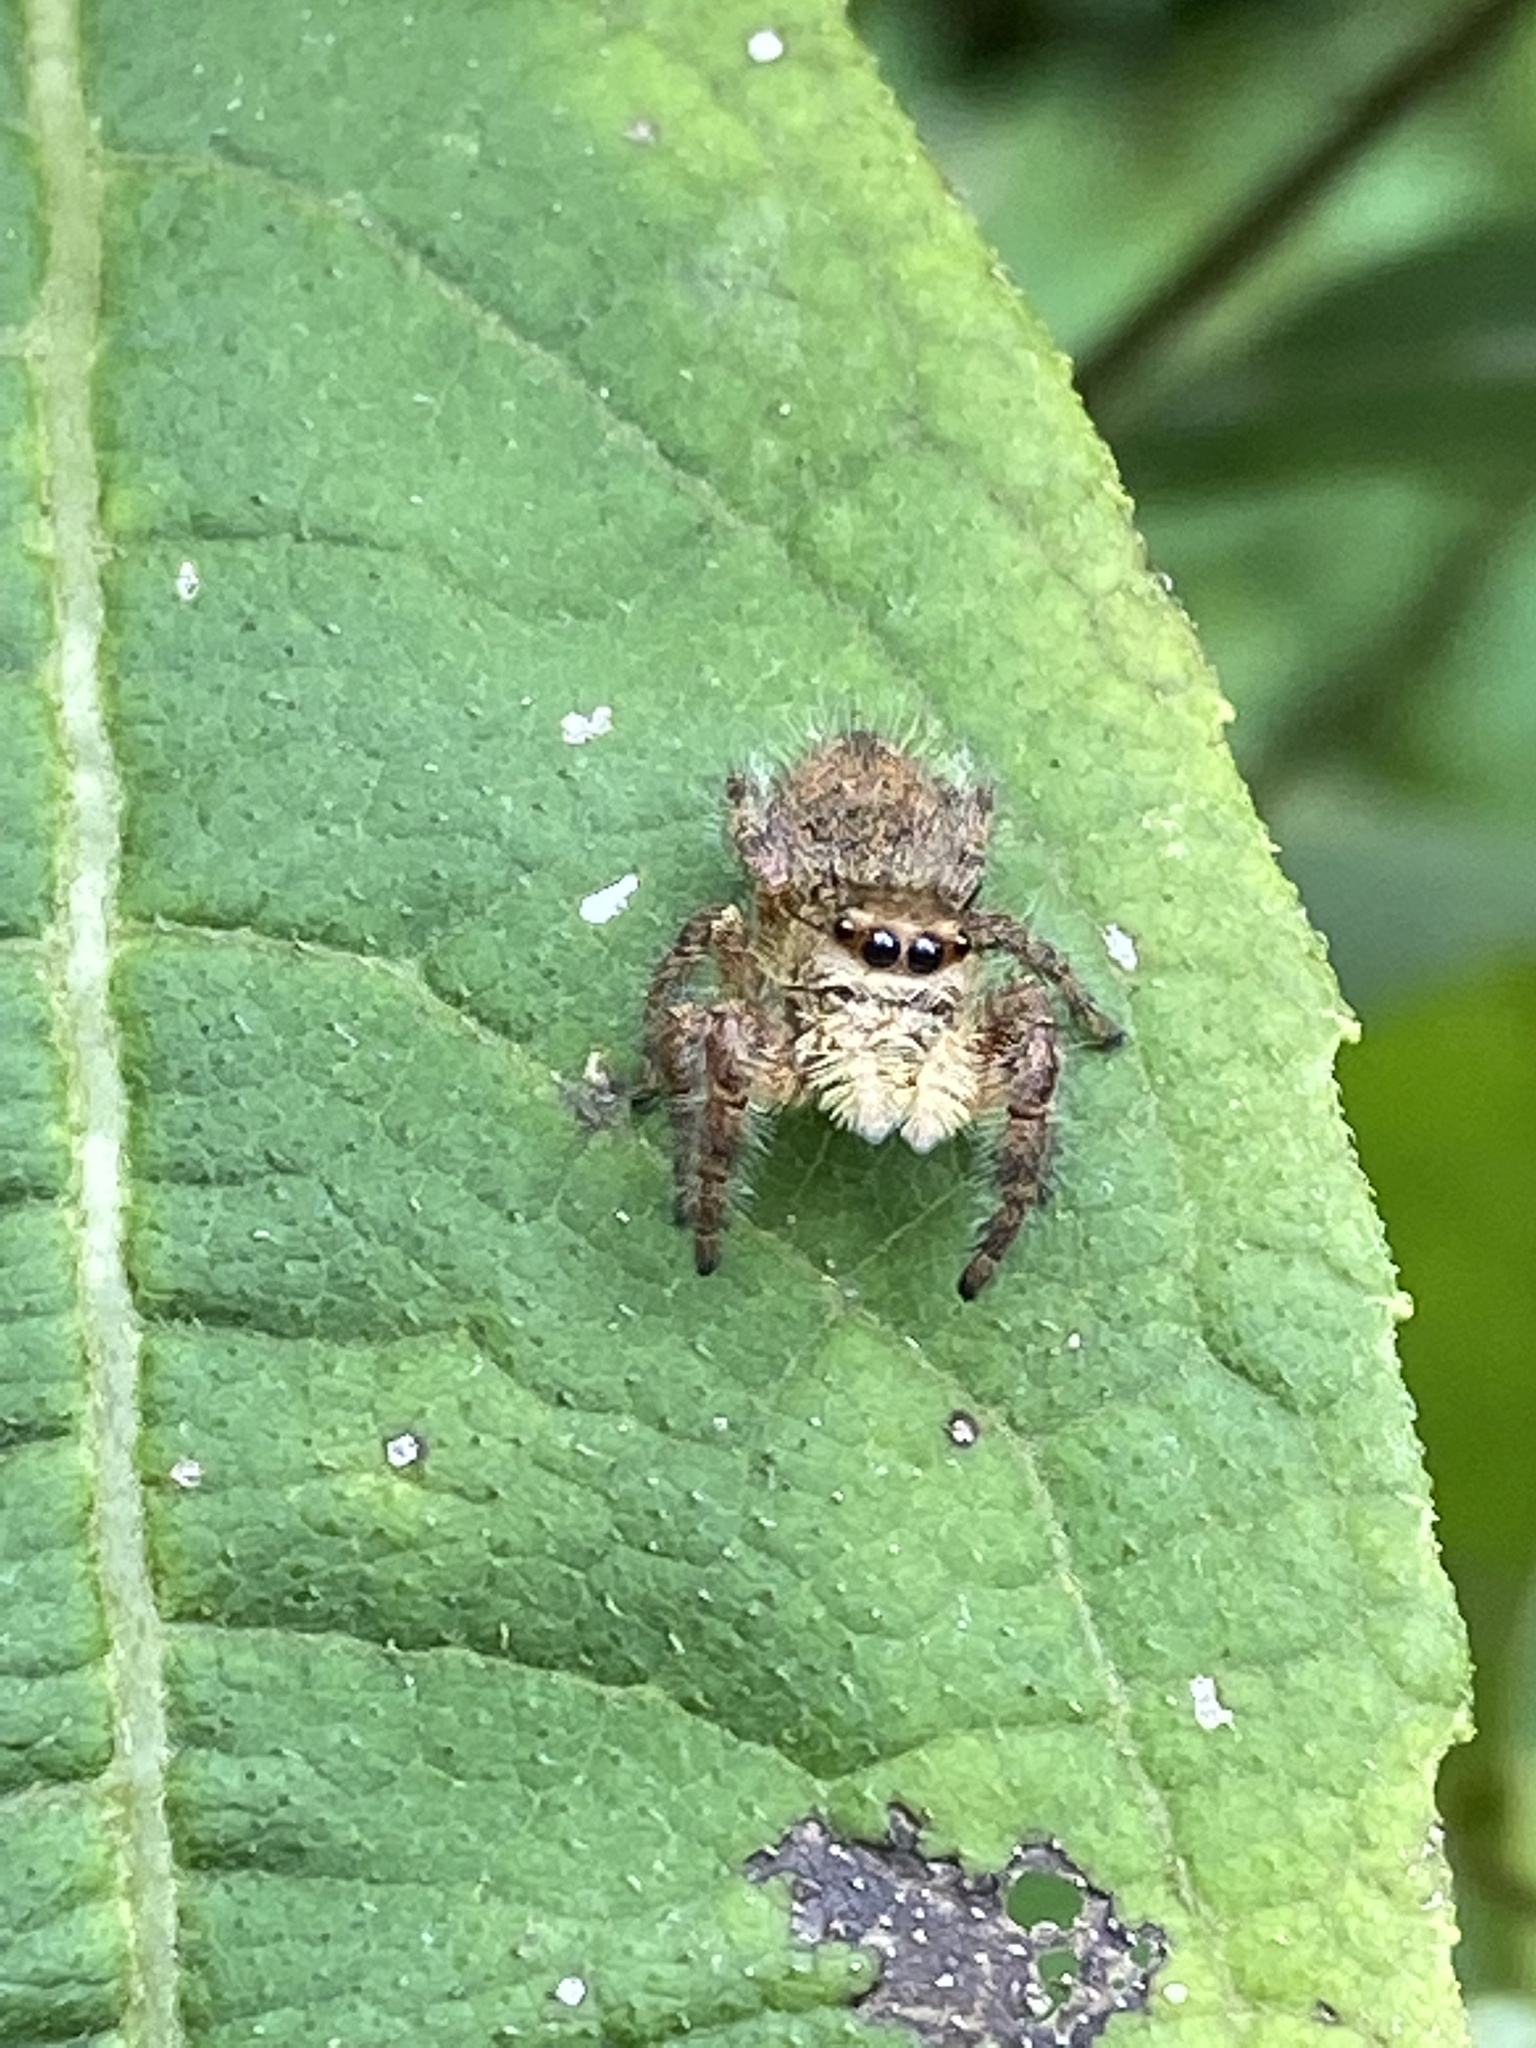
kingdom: Animalia
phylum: Arthropoda
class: Arachnida
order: Araneae
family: Salticidae
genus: Phidippus
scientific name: Phidippus princeps
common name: Grayish jumping spider
